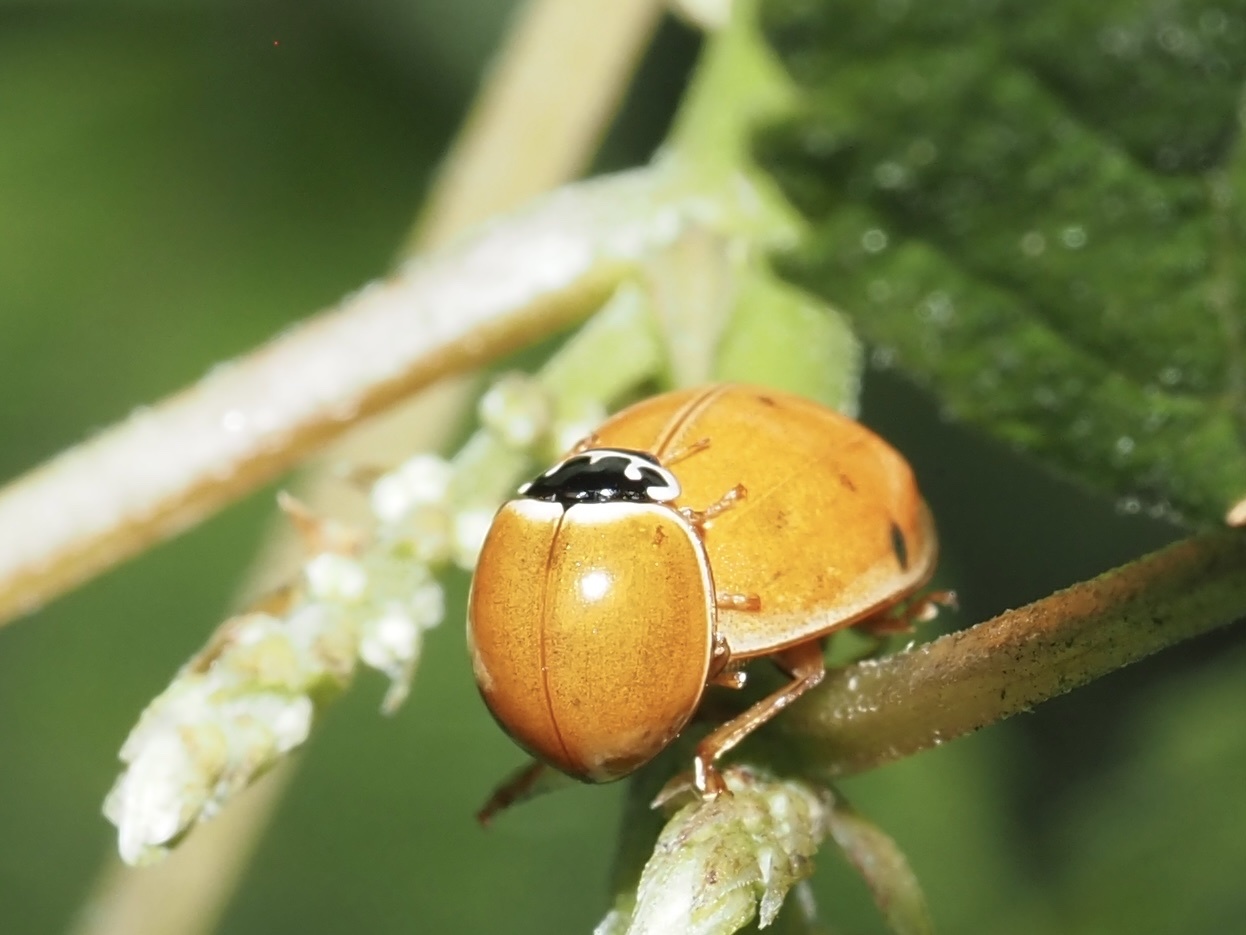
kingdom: Animalia
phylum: Arthropoda
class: Insecta
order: Coleoptera
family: Coccinellidae
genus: Cycloneda
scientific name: Cycloneda munda
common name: Polished lady beetle
